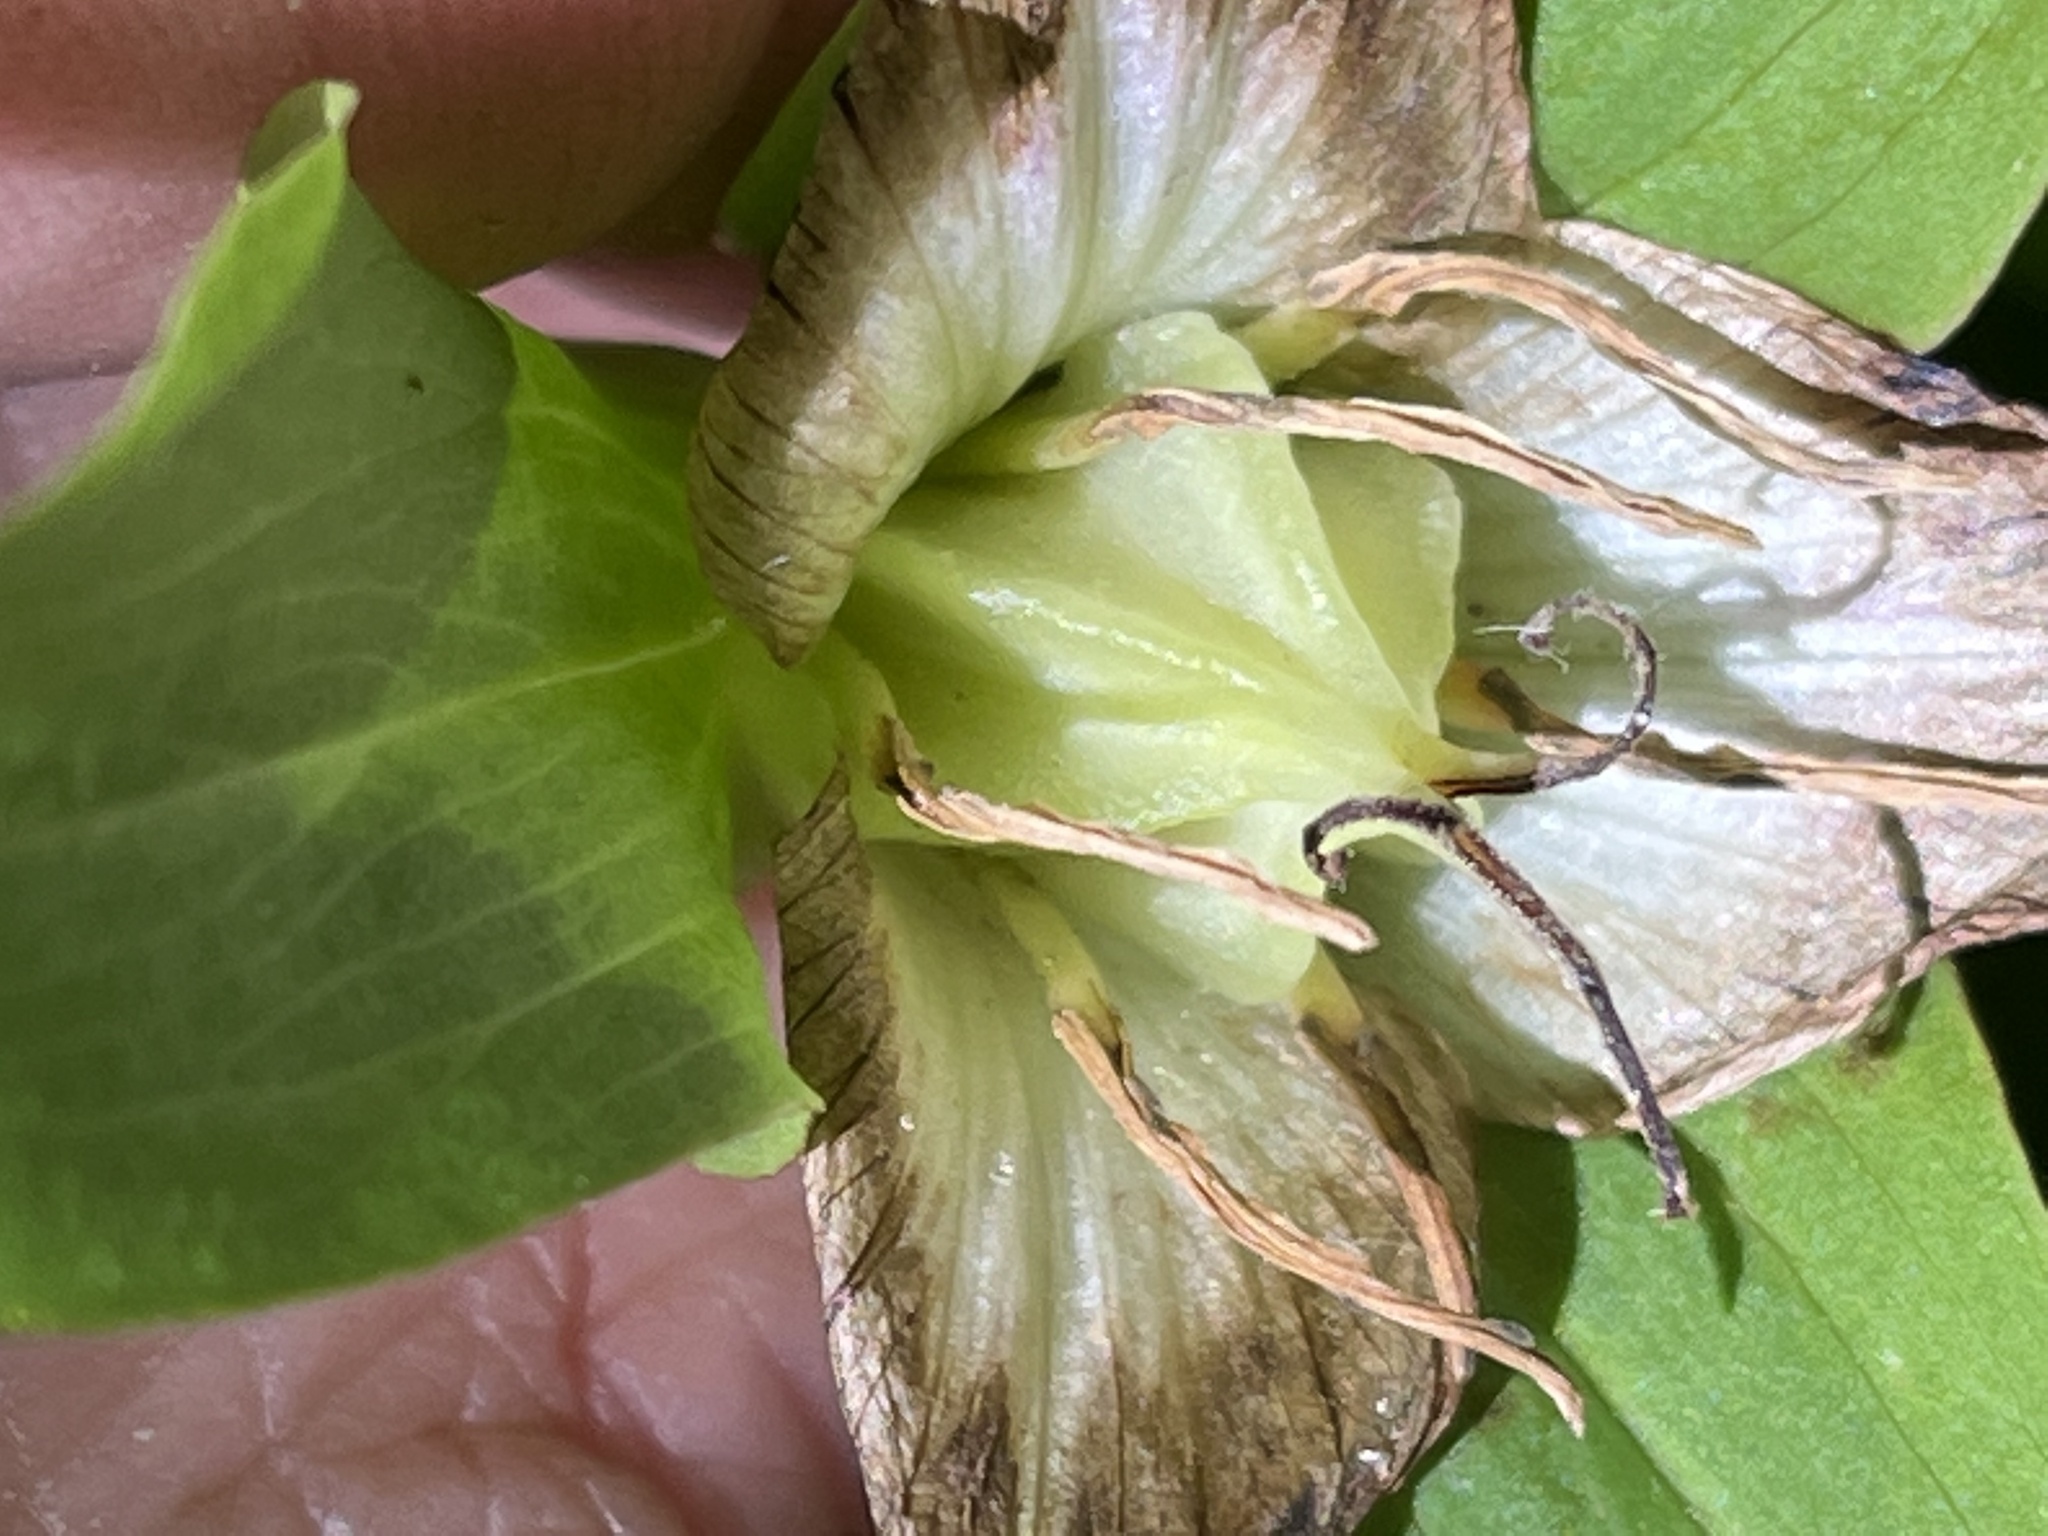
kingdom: Plantae
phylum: Tracheophyta
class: Liliopsida
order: Liliales
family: Melanthiaceae
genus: Trillium
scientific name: Trillium grandiflorum
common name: Great white trillium
